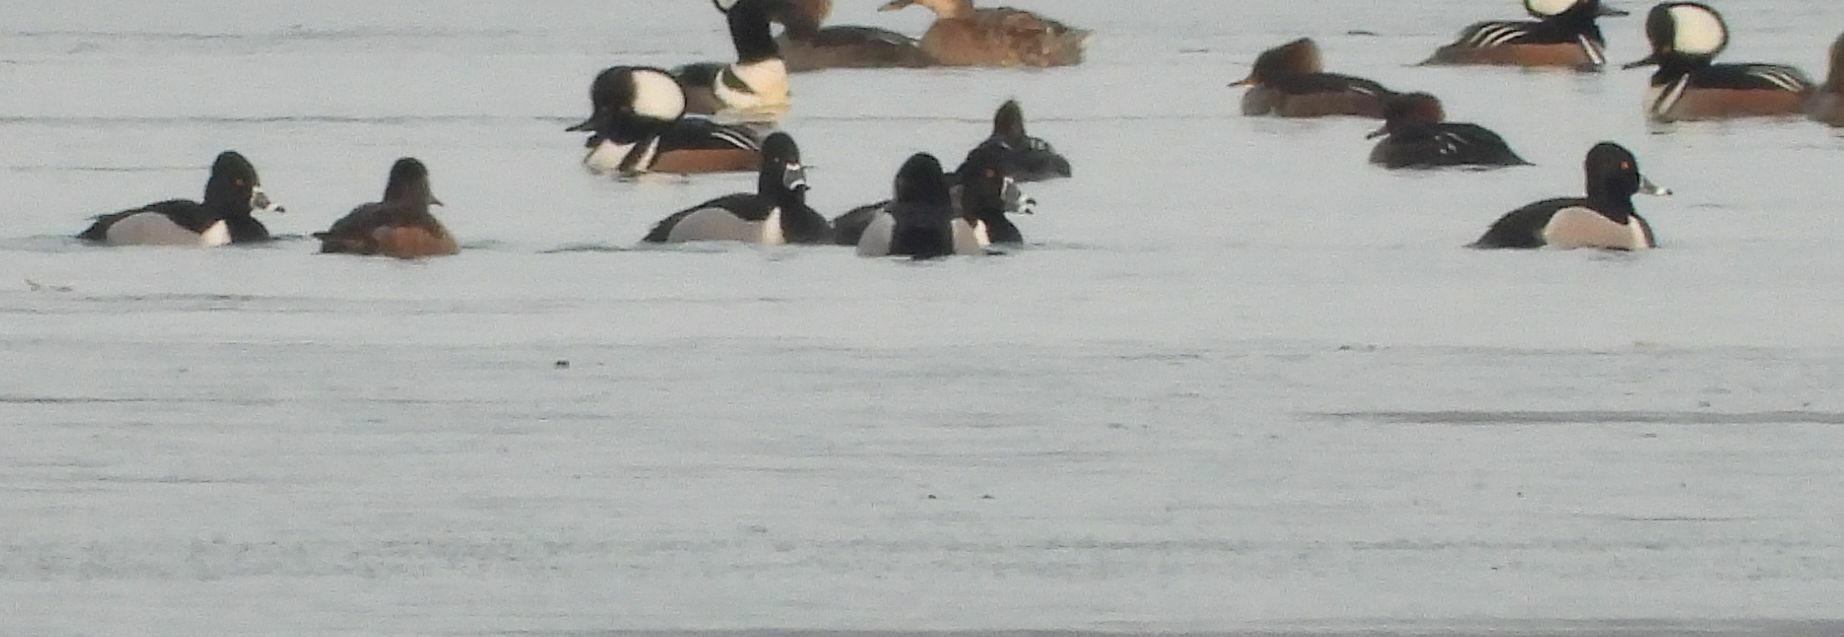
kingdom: Animalia
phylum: Chordata
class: Aves
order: Anseriformes
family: Anatidae
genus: Aythya
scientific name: Aythya collaris
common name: Ring-necked duck
